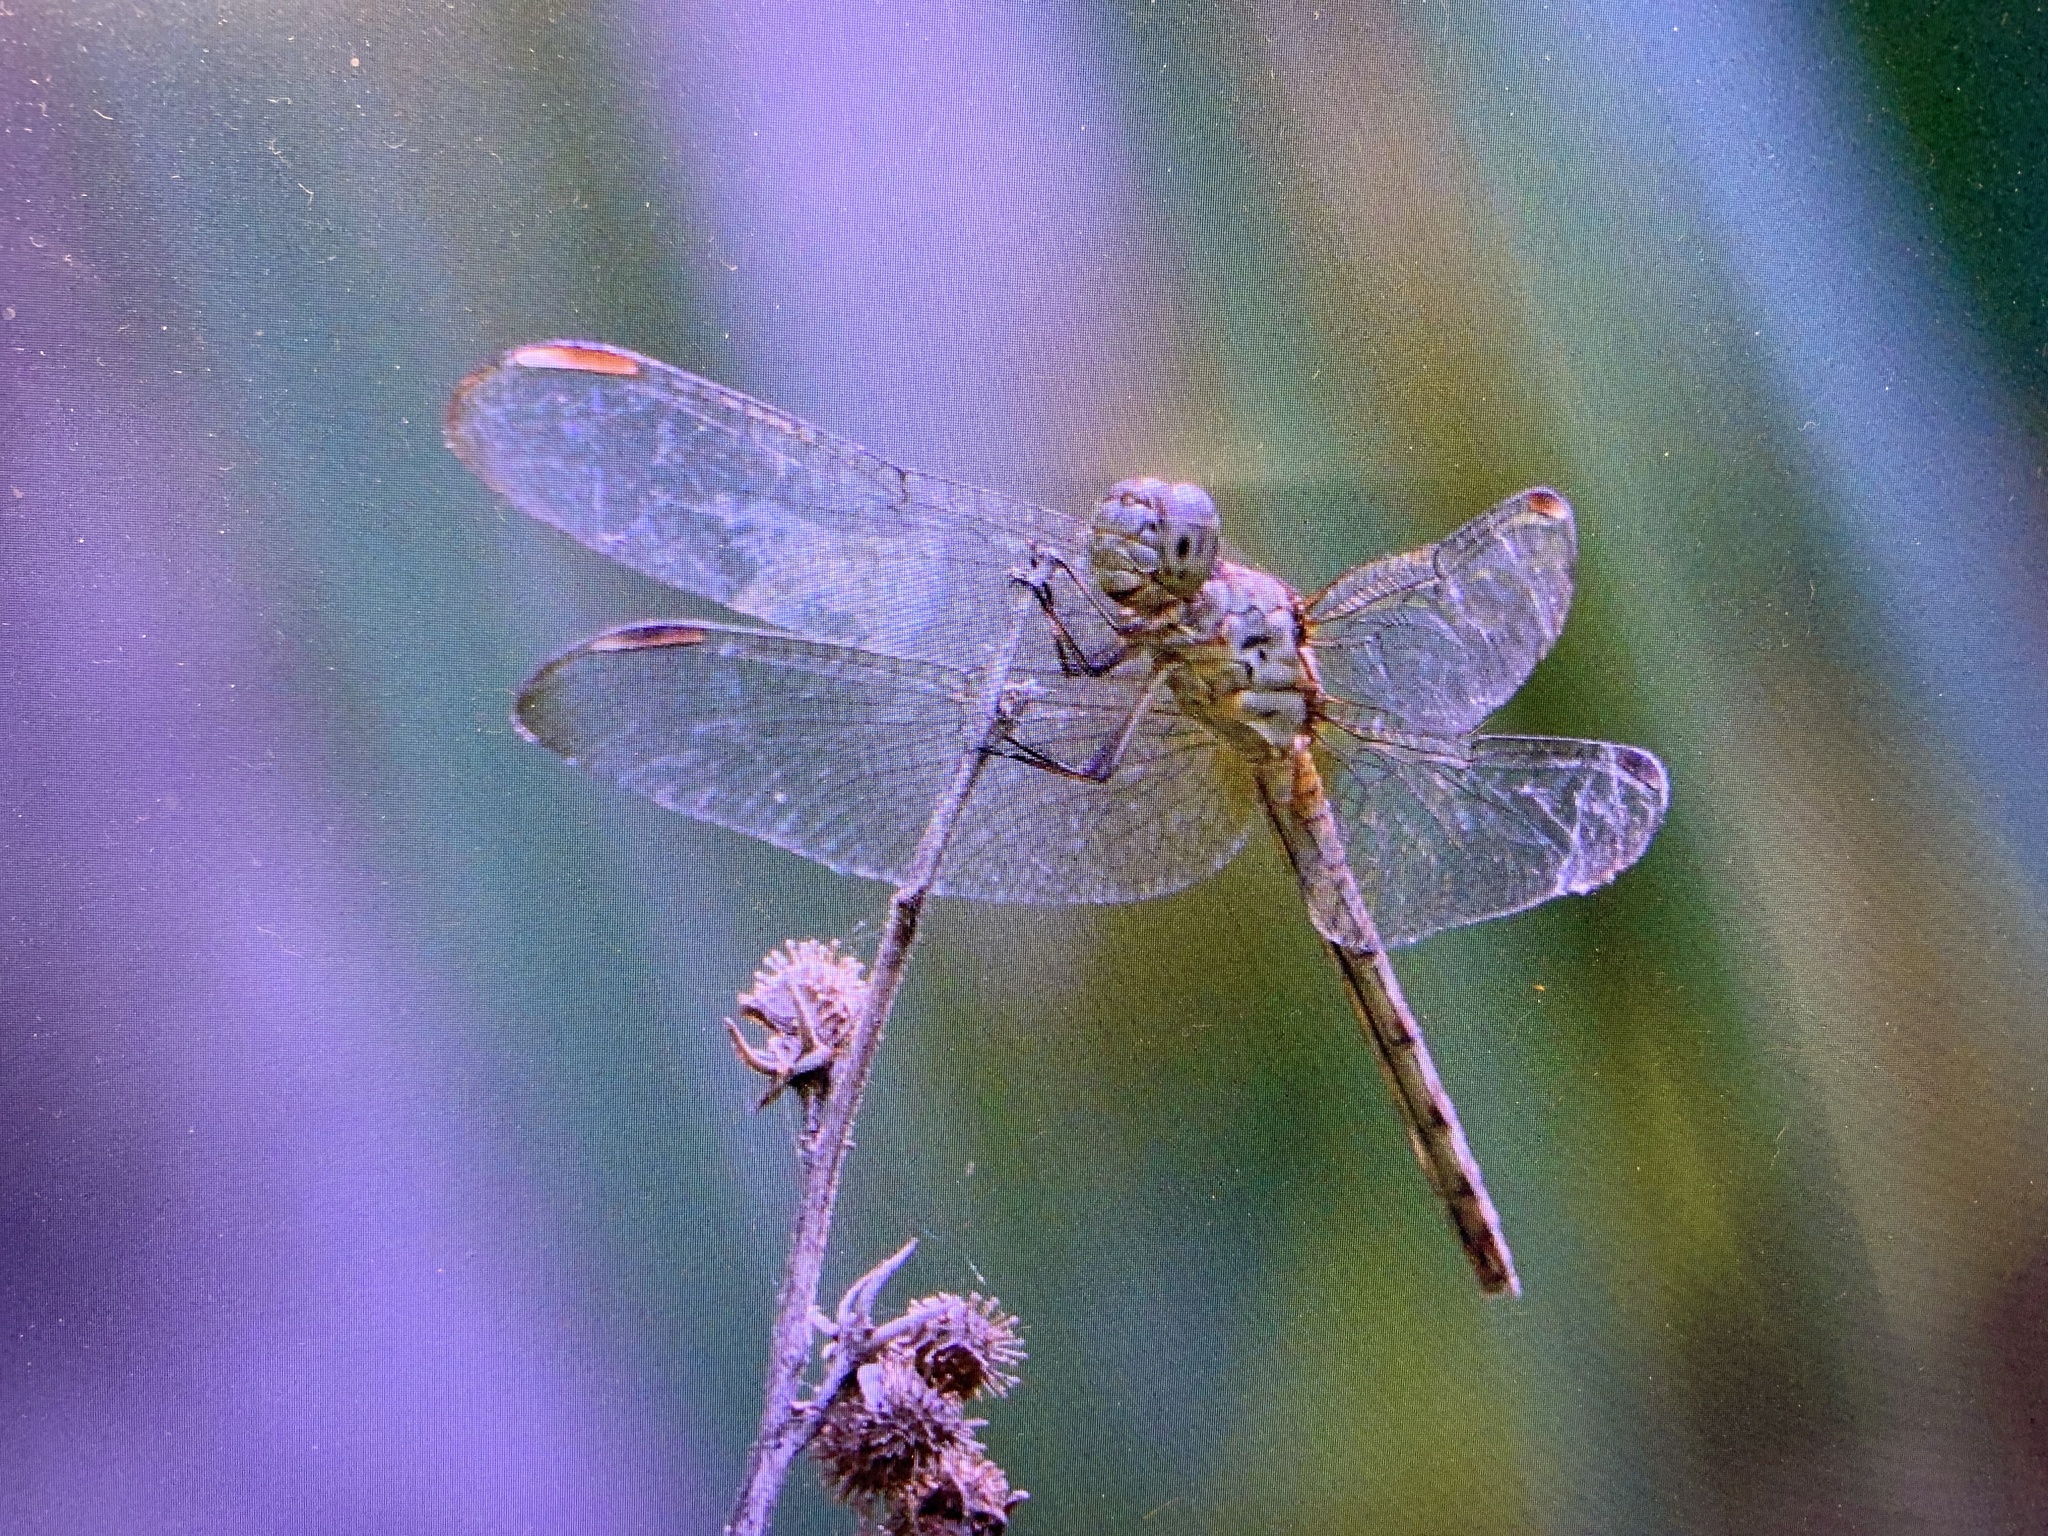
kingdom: Animalia
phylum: Arthropoda
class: Insecta
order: Odonata
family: Libellulidae
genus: Erythrodiplax
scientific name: Erythrodiplax umbrata
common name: Band-winged dragonlet
